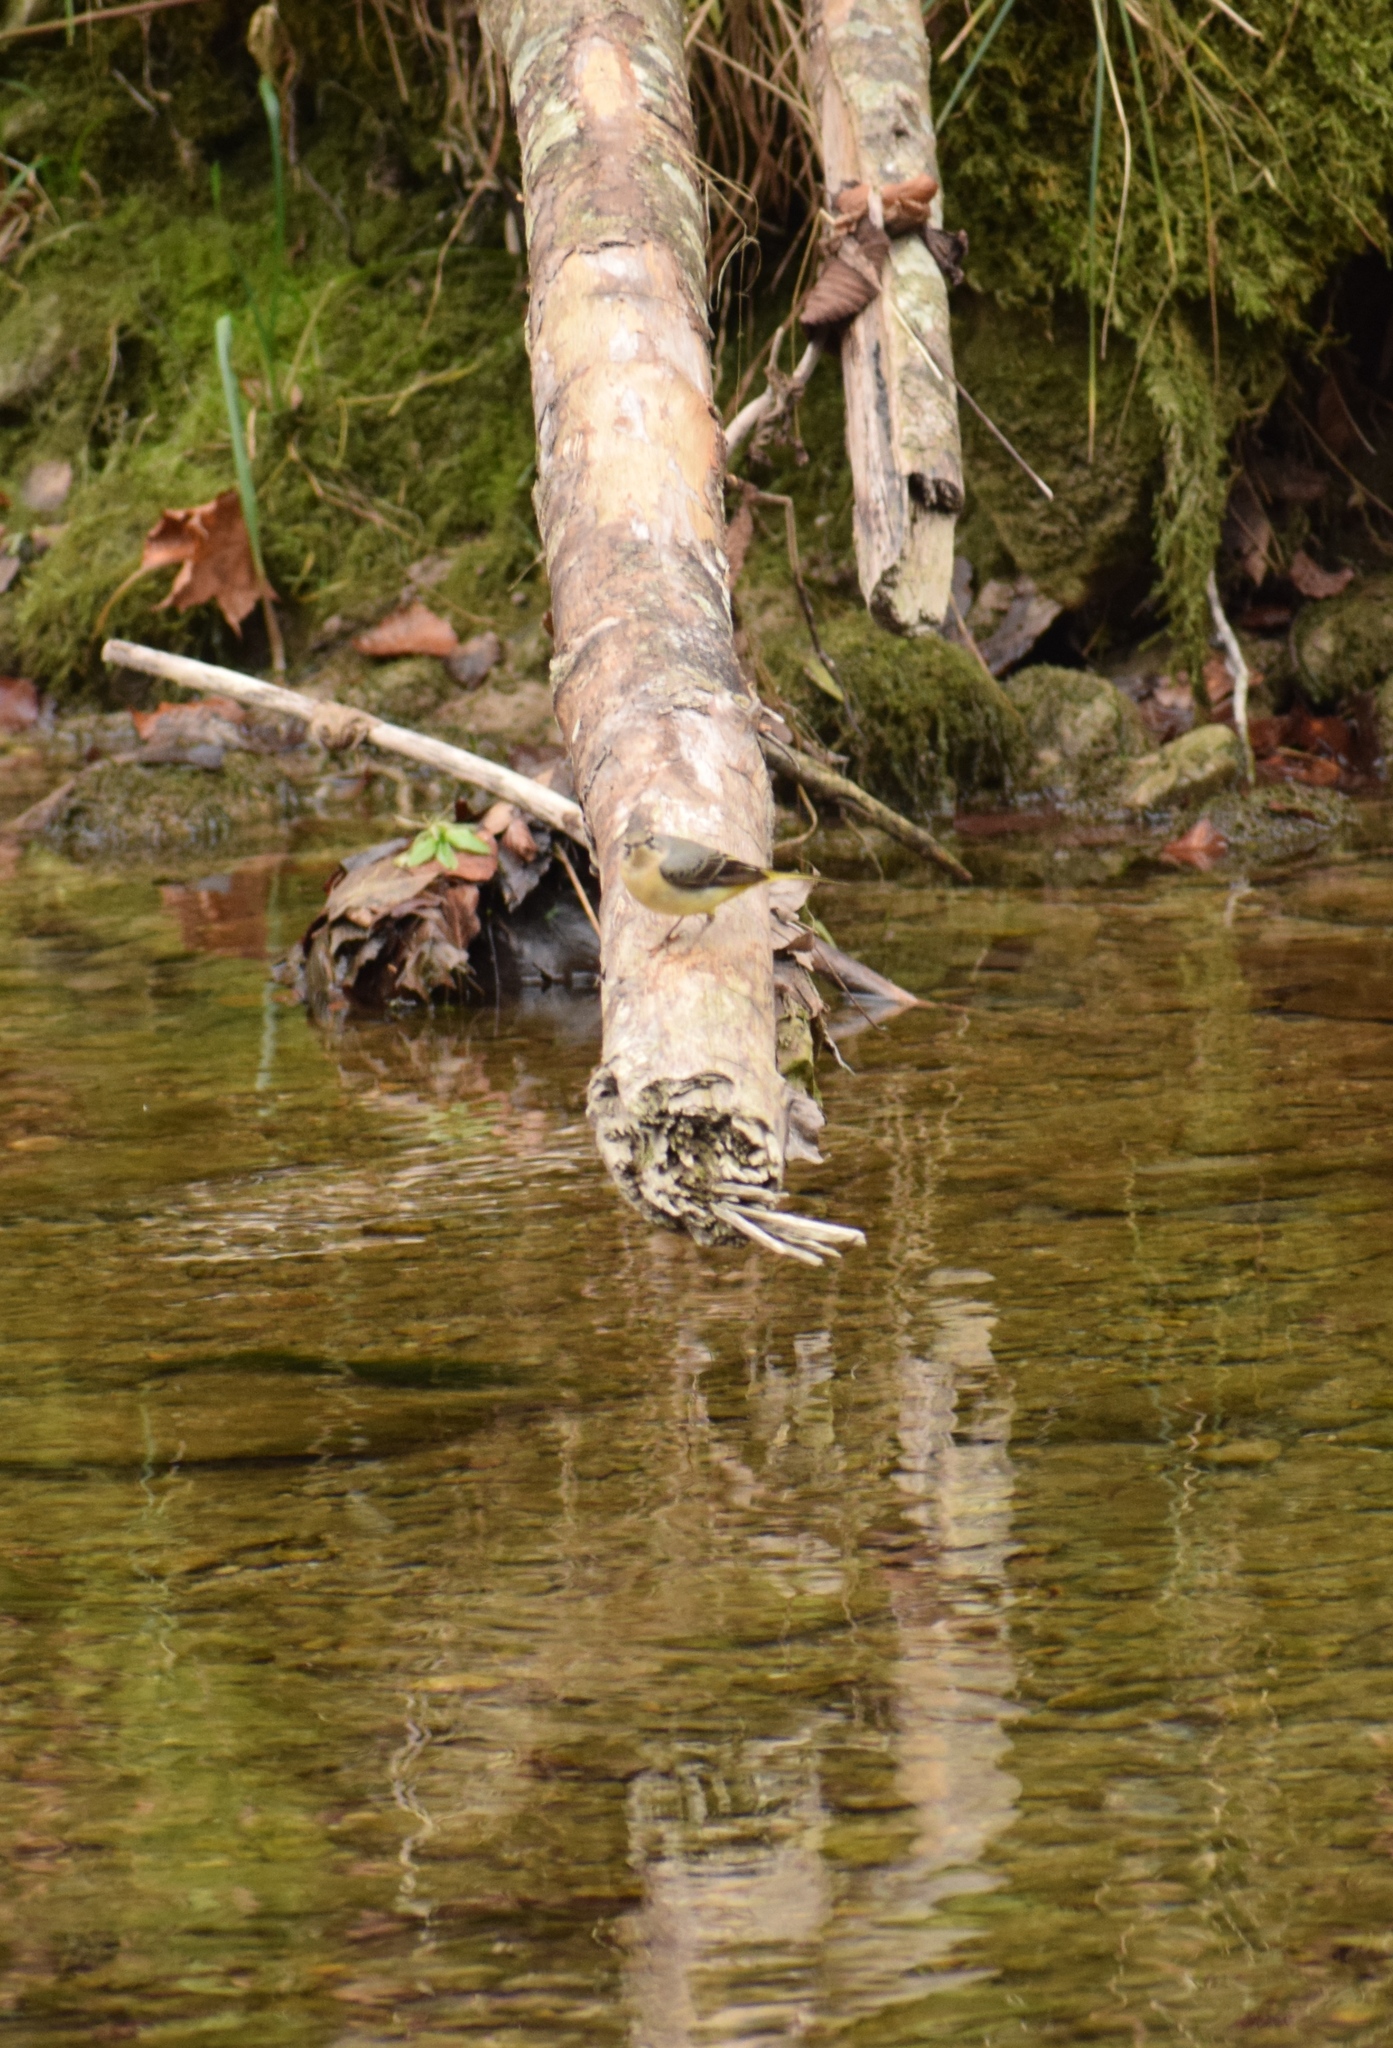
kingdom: Animalia
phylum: Chordata
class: Aves
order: Passeriformes
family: Motacillidae
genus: Motacilla
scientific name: Motacilla cinerea
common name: Grey wagtail
